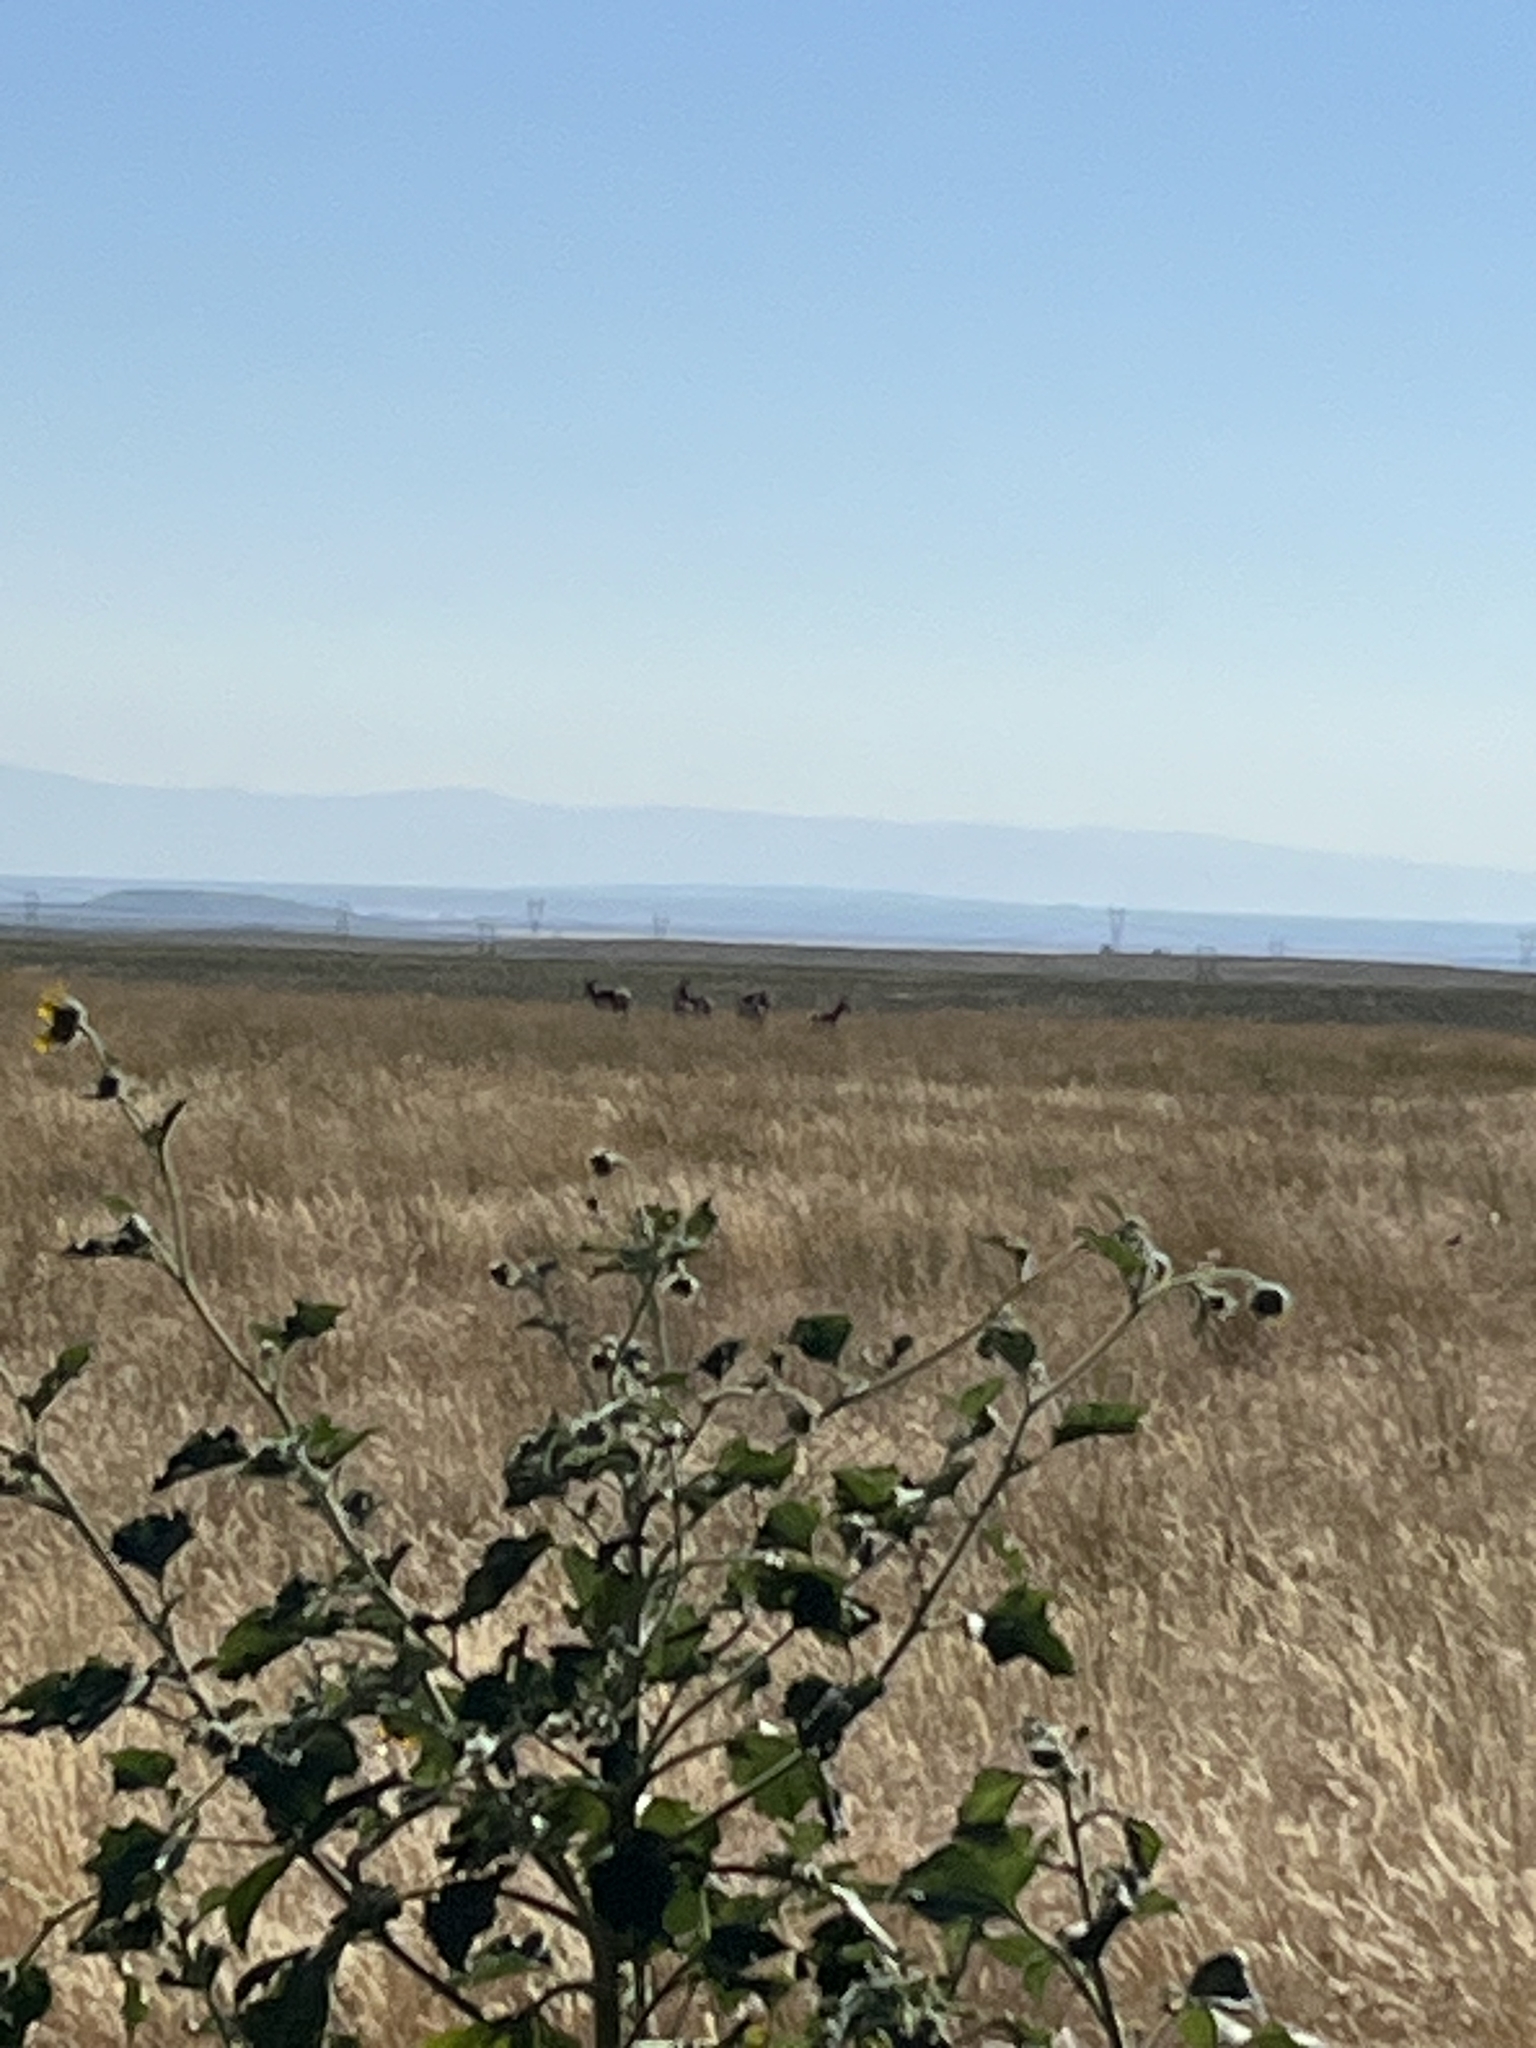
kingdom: Animalia
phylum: Chordata
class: Mammalia
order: Artiodactyla
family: Antilocapridae
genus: Antilocapra
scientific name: Antilocapra americana
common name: Pronghorn
